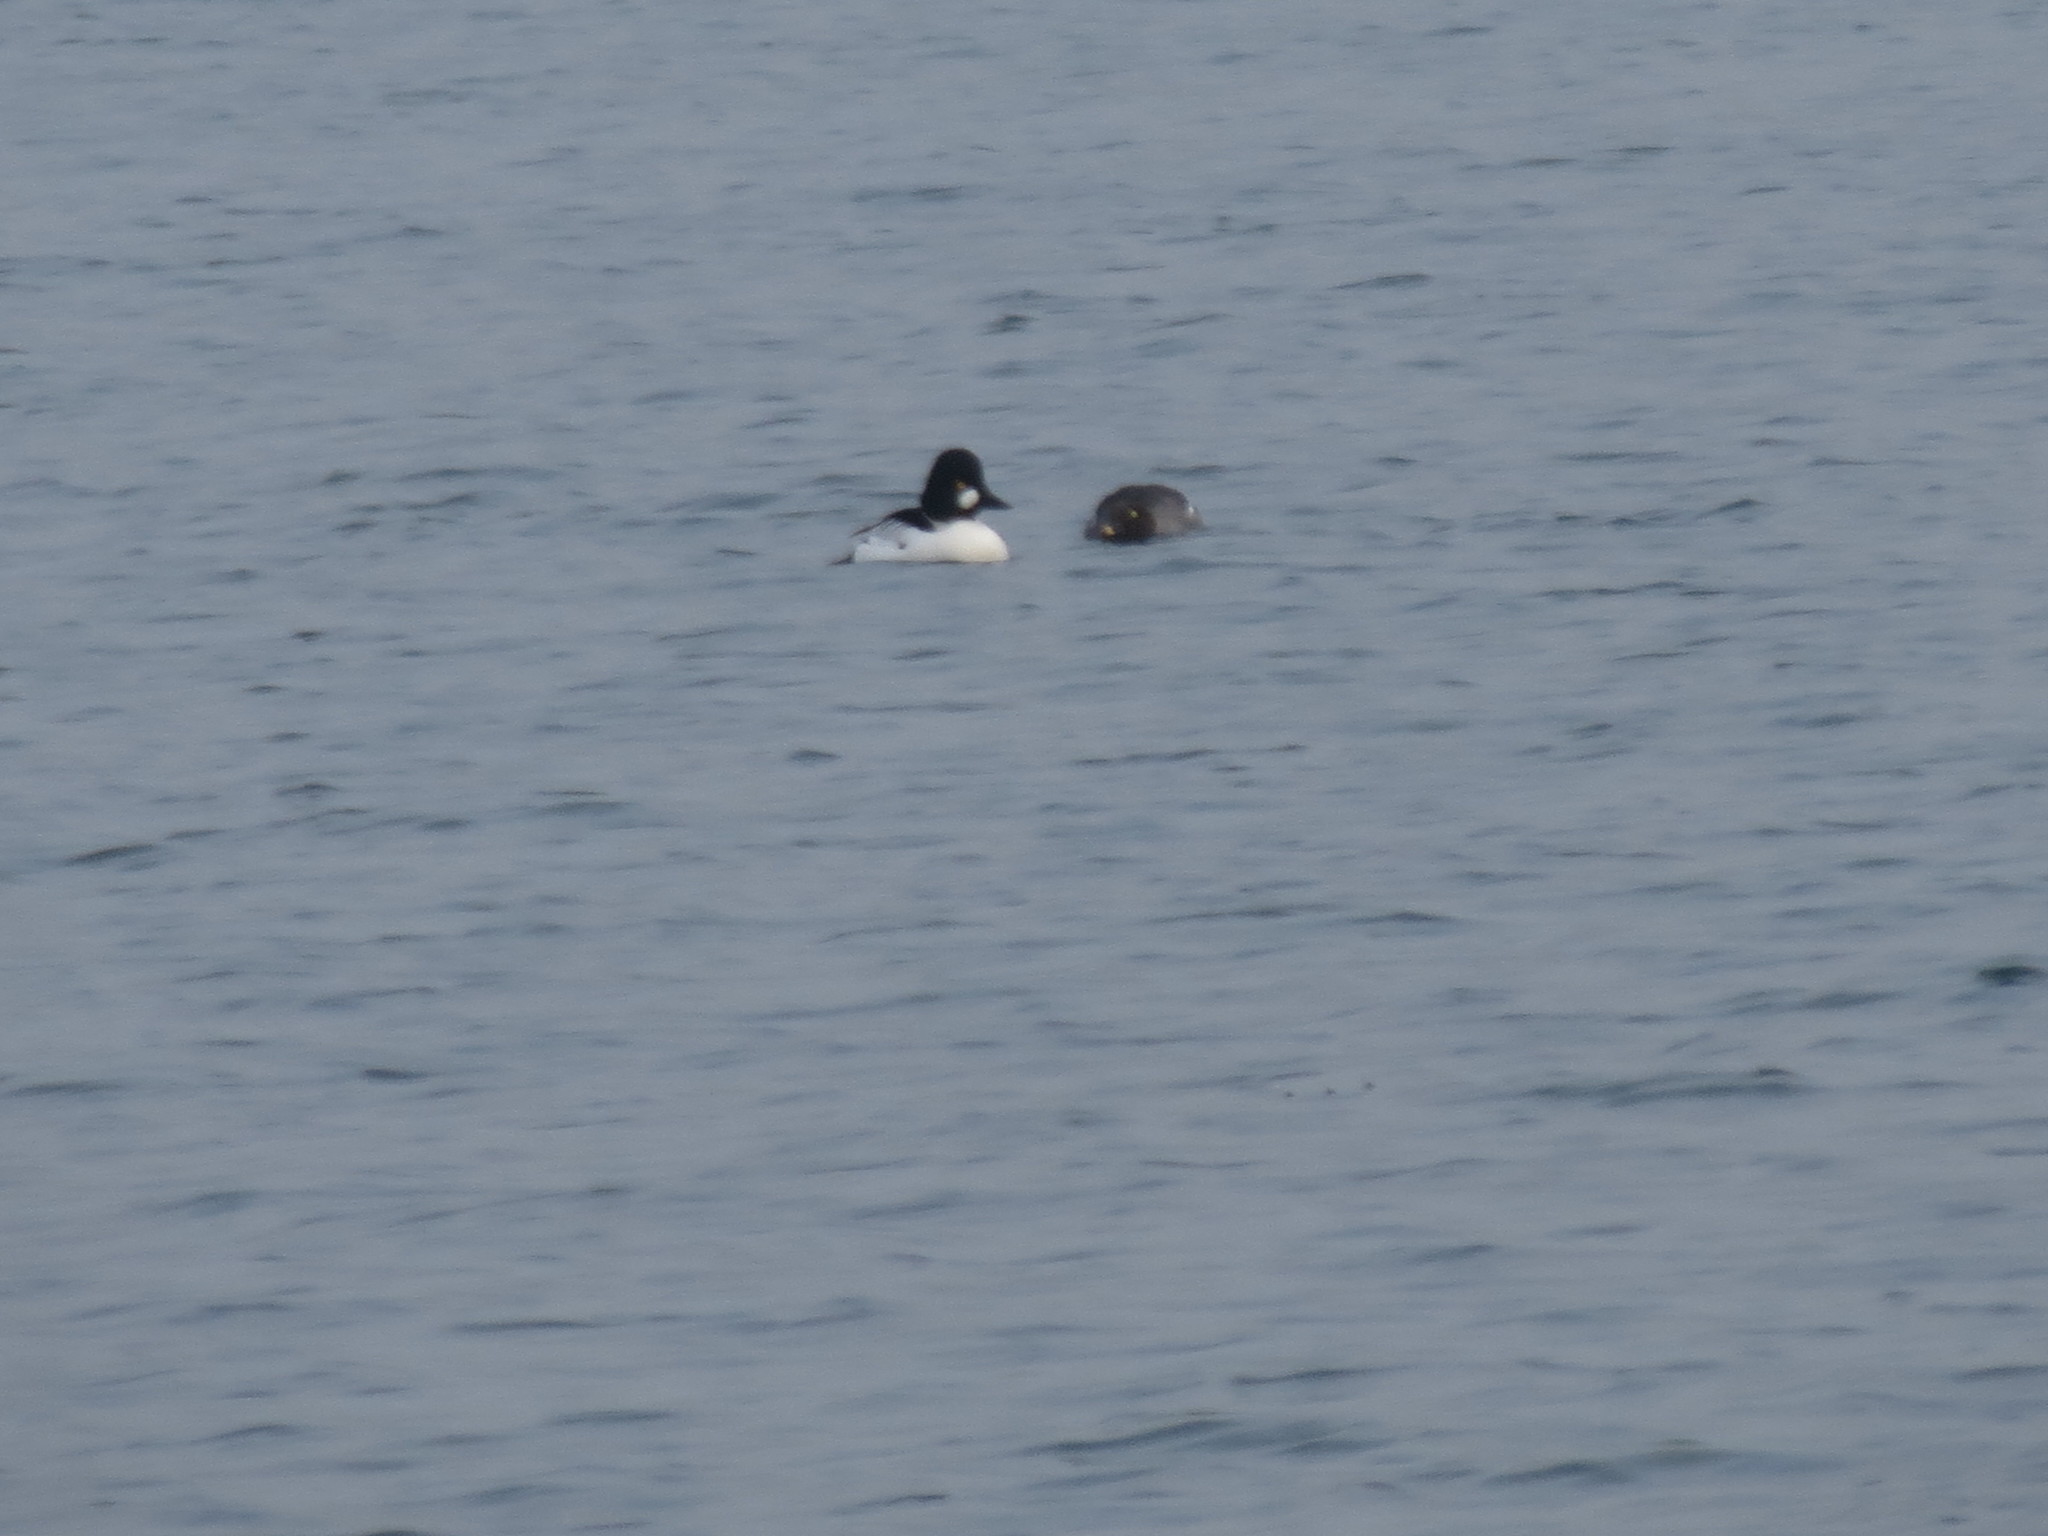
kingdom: Animalia
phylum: Chordata
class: Aves
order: Anseriformes
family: Anatidae
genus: Bucephala
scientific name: Bucephala clangula
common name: Common goldeneye
